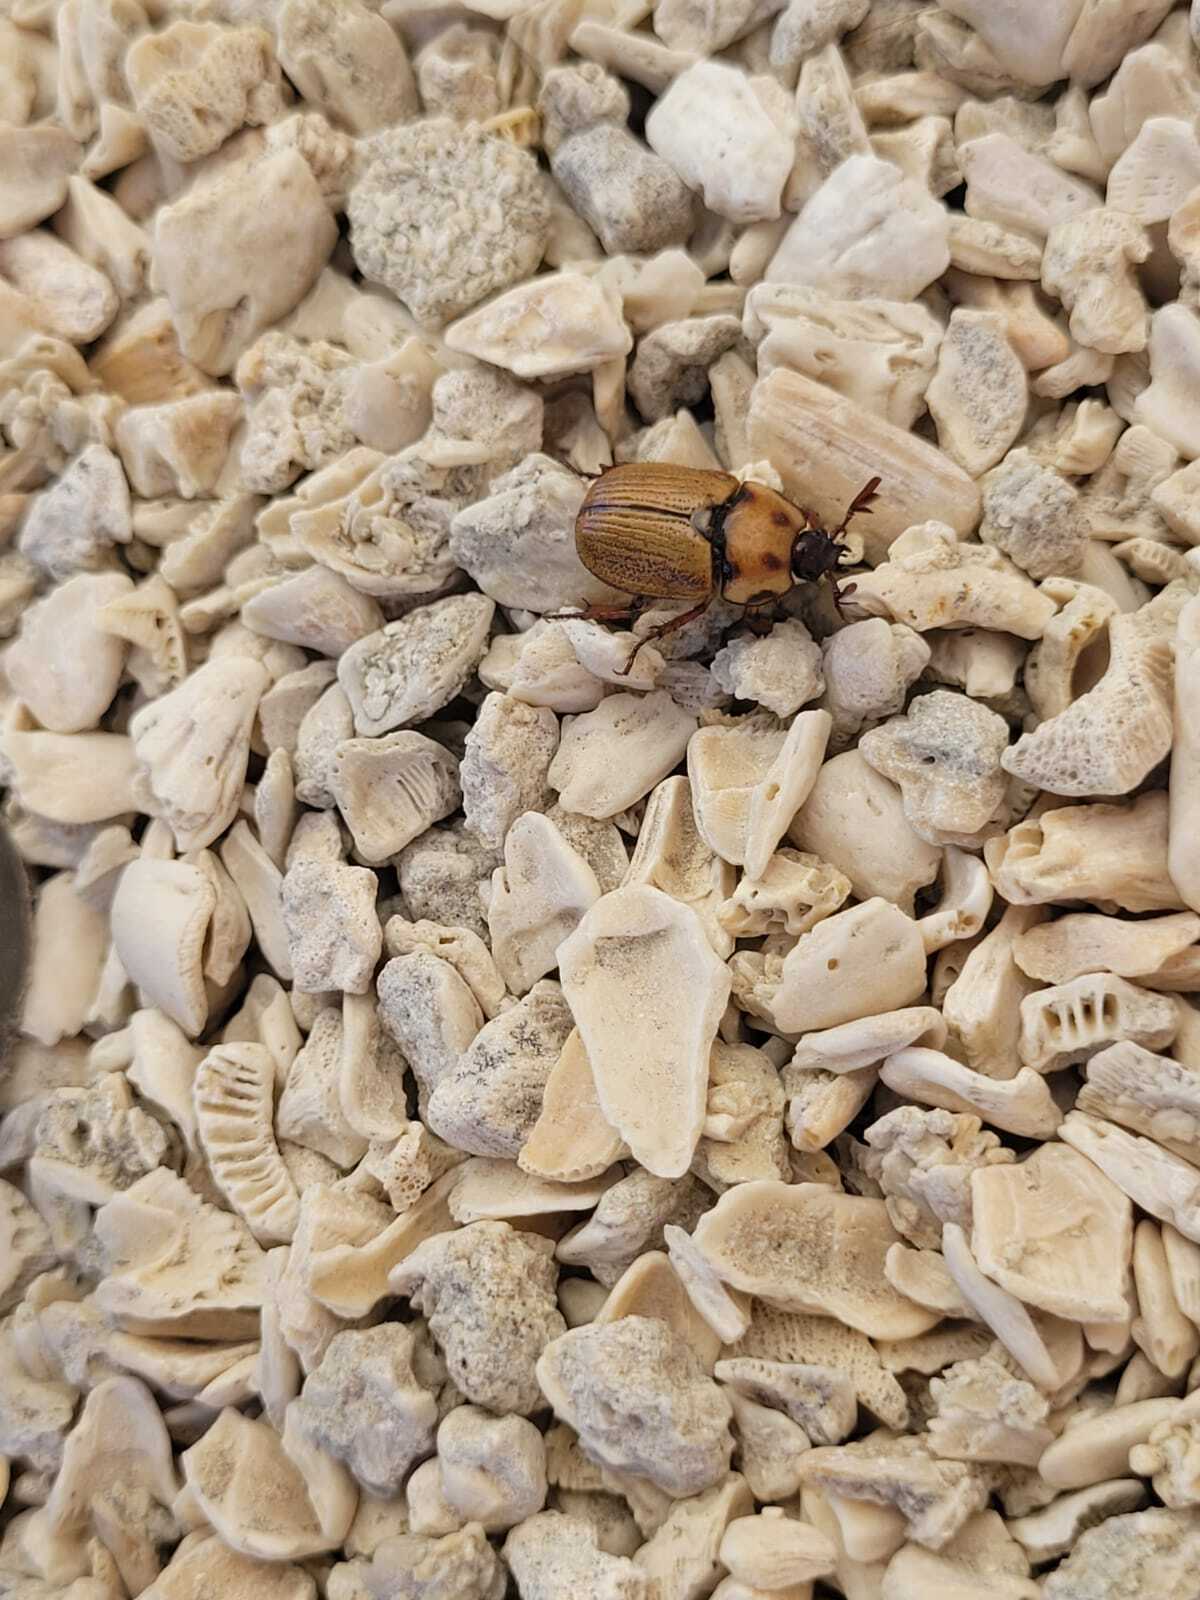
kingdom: Animalia
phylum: Arthropoda
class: Insecta
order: Coleoptera
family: Scarabaeidae
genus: Oryctomorphus
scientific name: Oryctomorphus maculicollis
